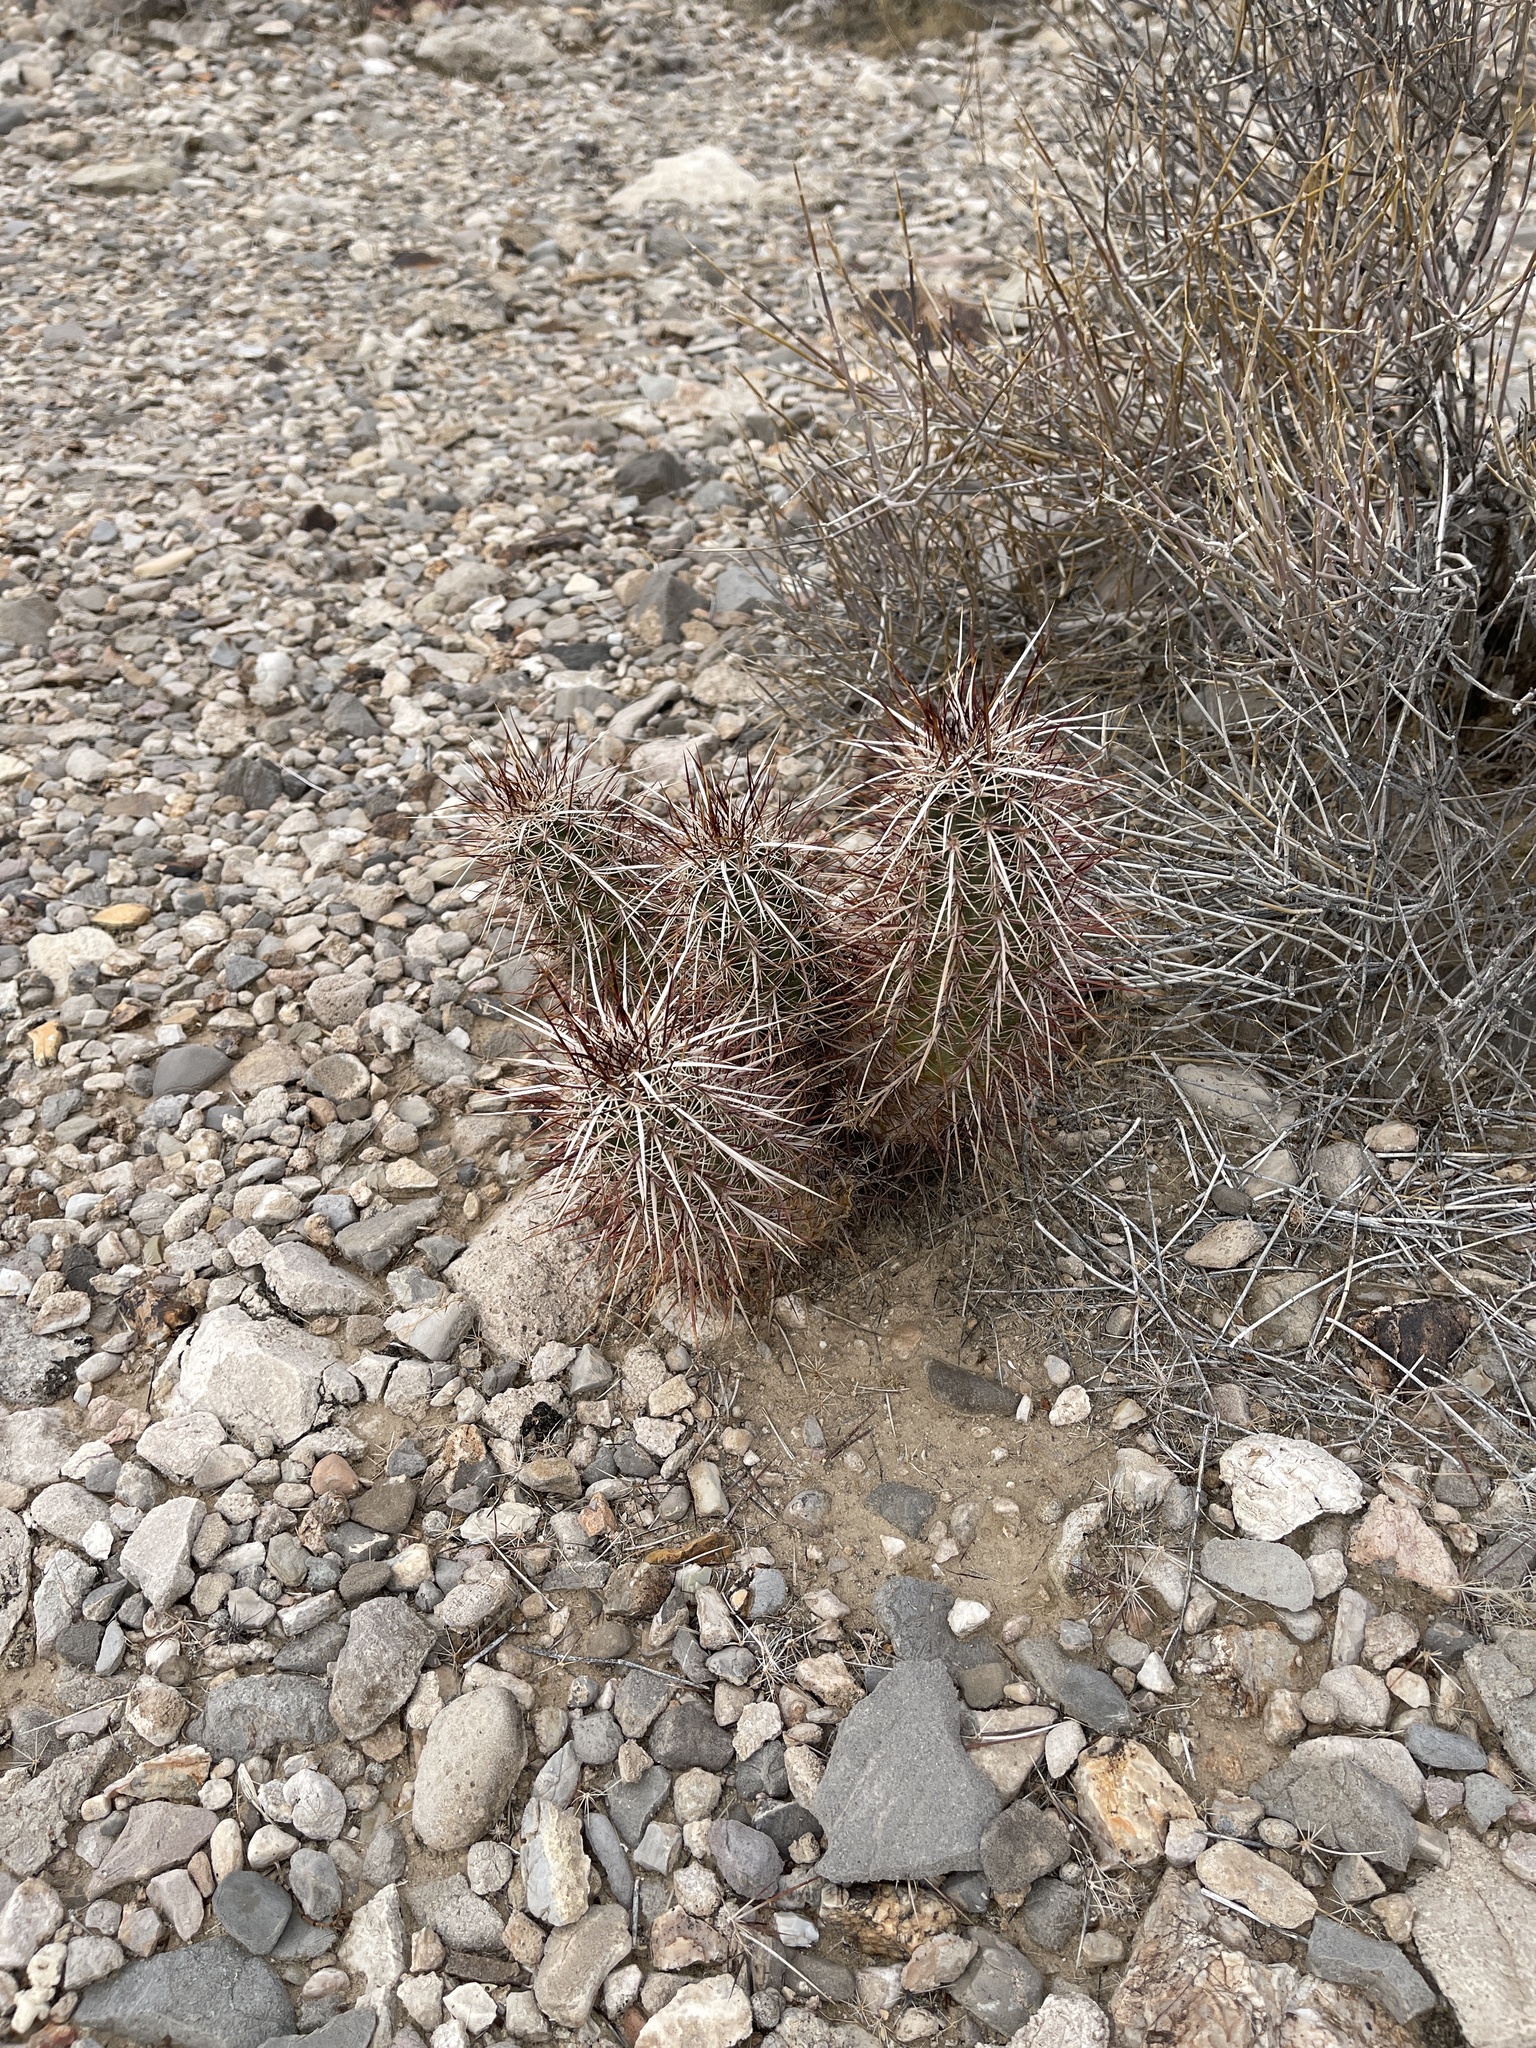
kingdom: Plantae
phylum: Tracheophyta
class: Magnoliopsida
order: Caryophyllales
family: Cactaceae
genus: Echinocereus
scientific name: Echinocereus engelmannii
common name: Engelmann's hedgehog cactus
